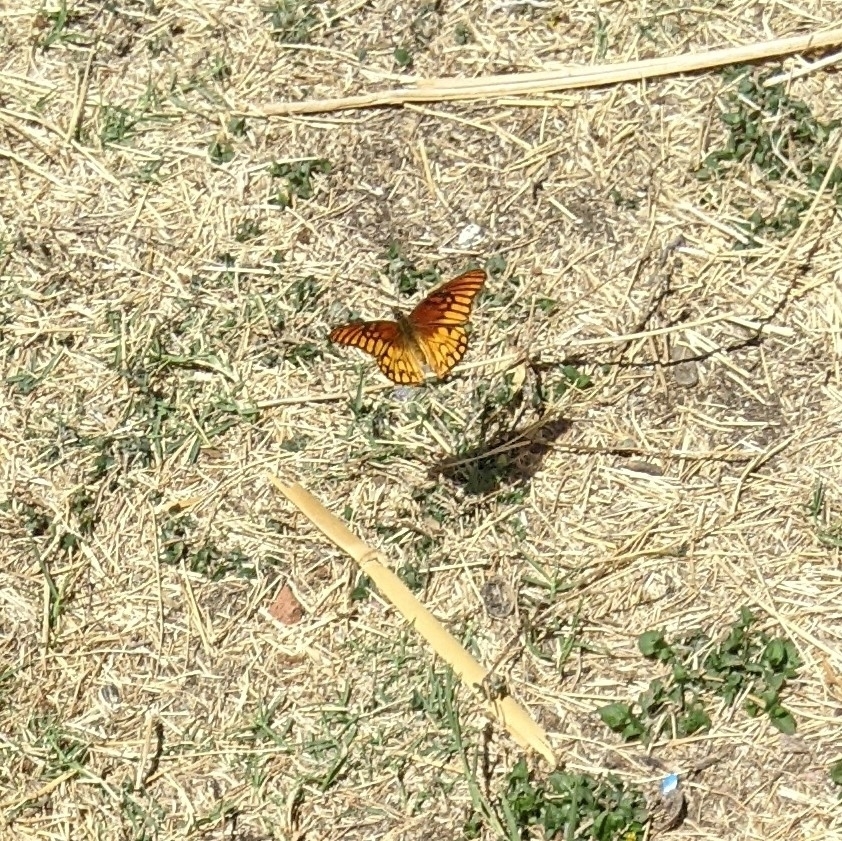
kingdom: Animalia
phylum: Arthropoda
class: Insecta
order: Lepidoptera
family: Nymphalidae
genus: Dione
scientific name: Dione moneta
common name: Mexican silverspot
